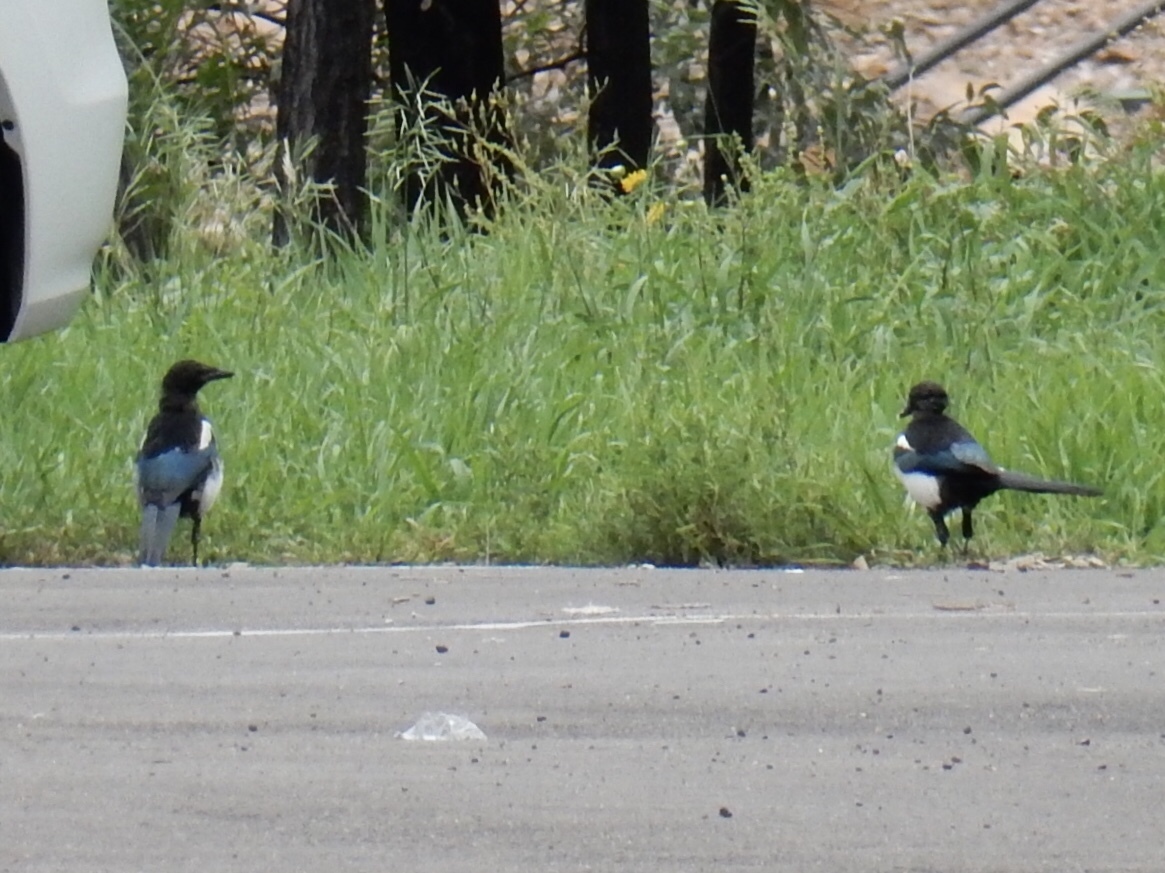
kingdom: Animalia
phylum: Chordata
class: Aves
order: Passeriformes
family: Corvidae
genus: Pica
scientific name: Pica hudsonia
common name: Black-billed magpie
